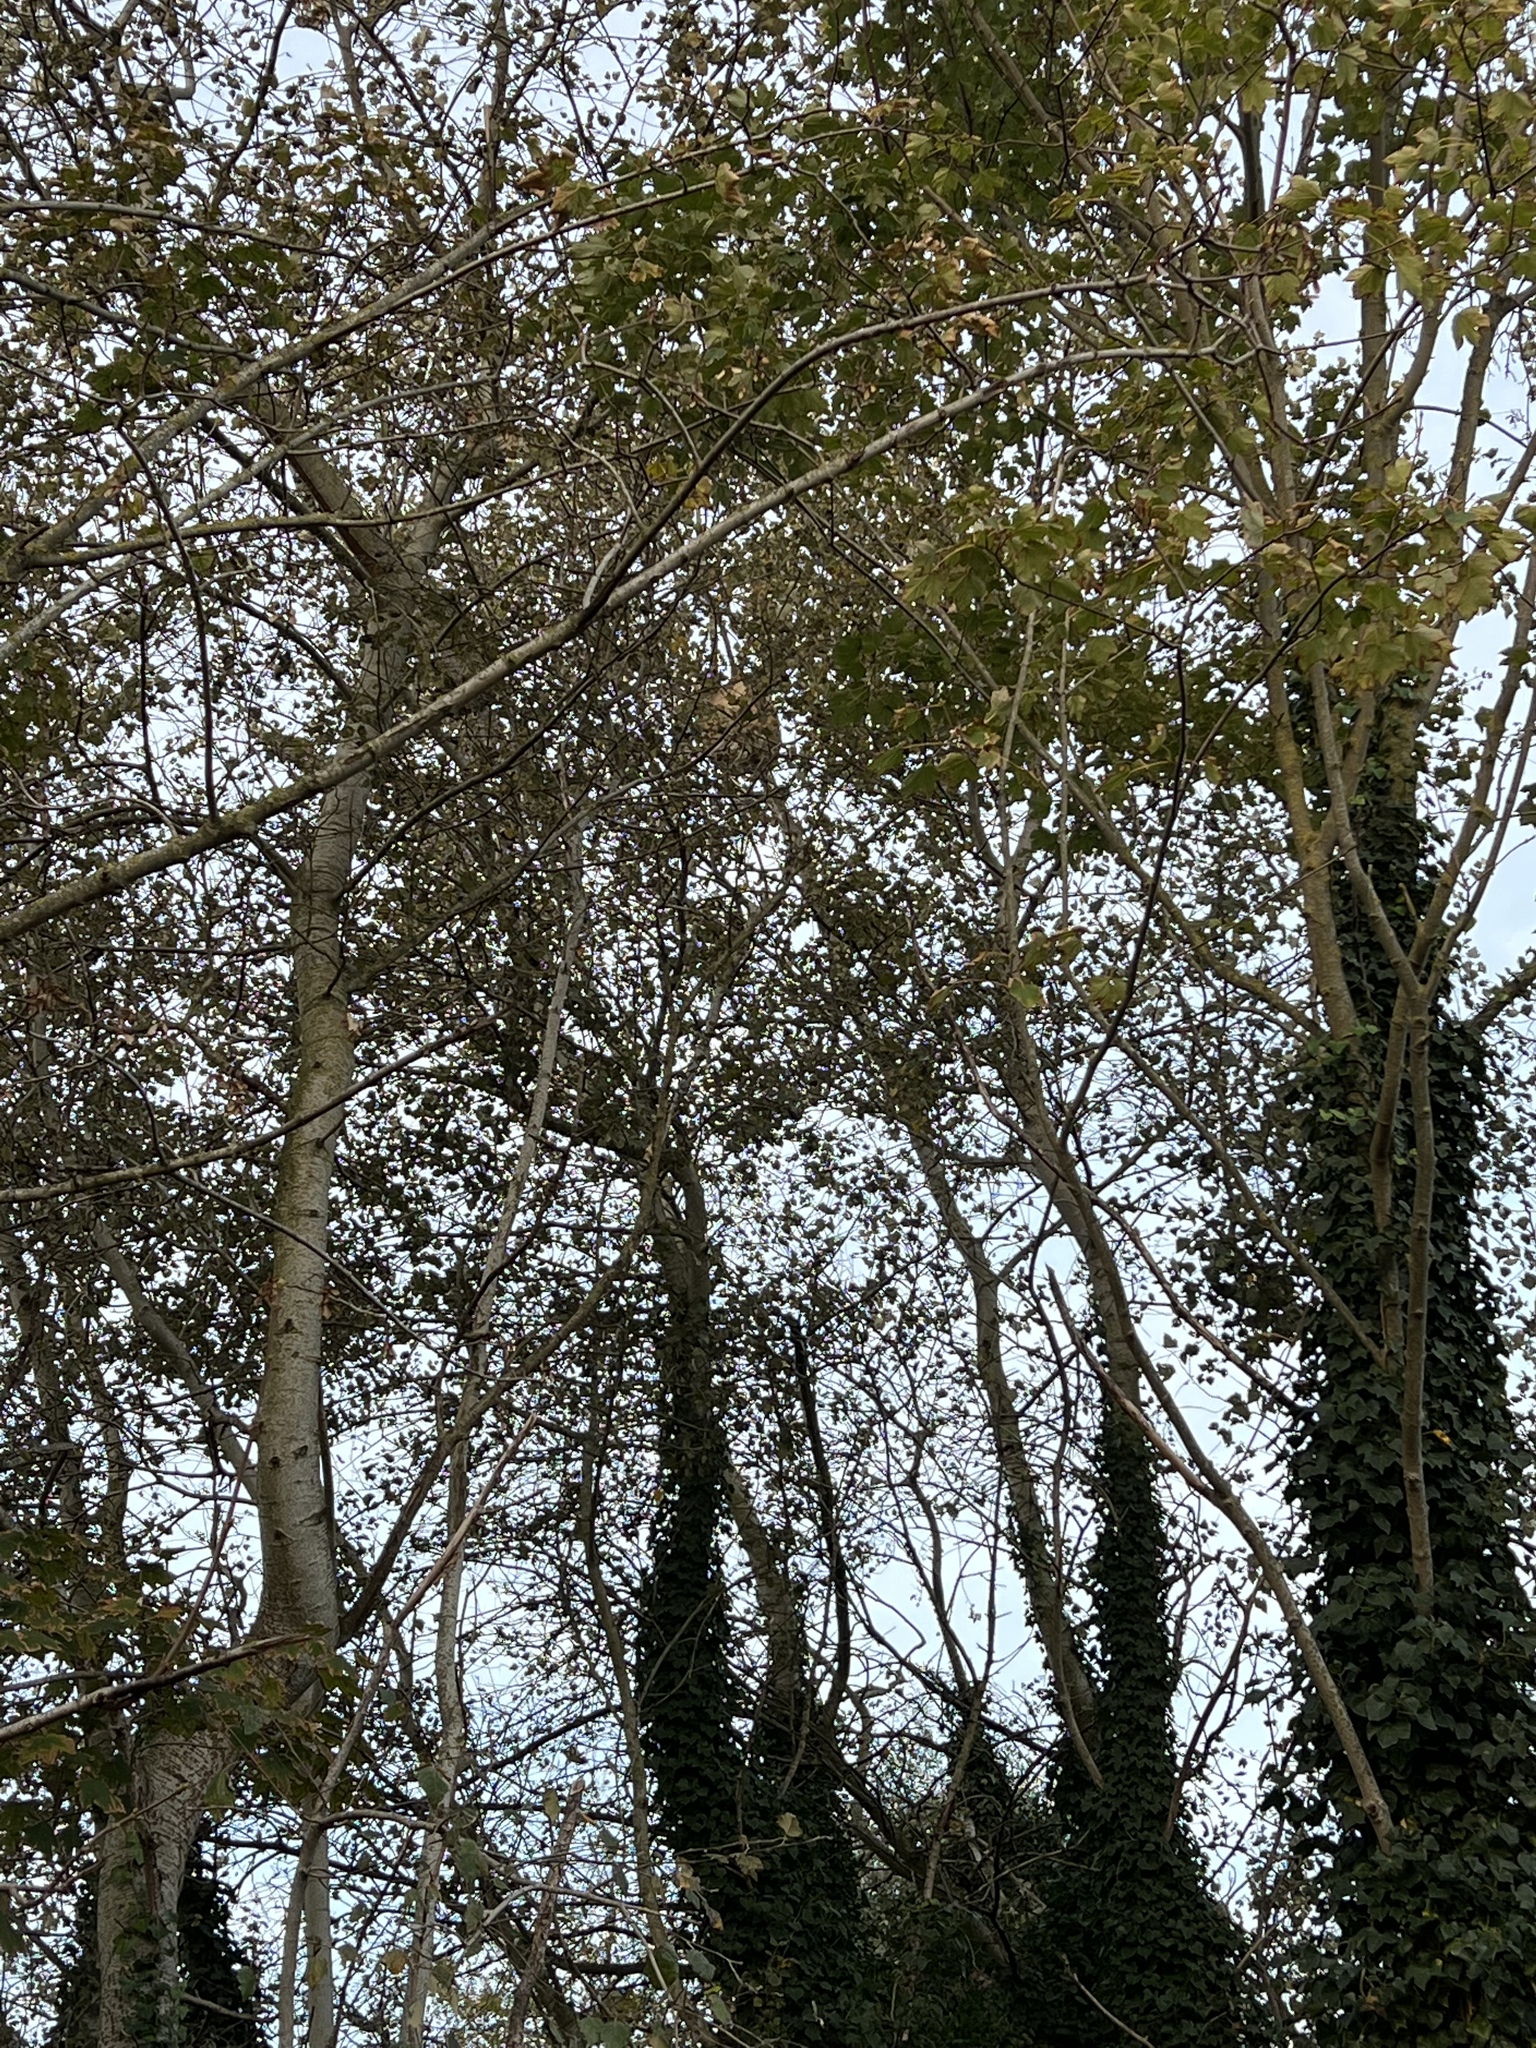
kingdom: Animalia
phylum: Arthropoda
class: Insecta
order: Hymenoptera
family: Vespidae
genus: Vespa
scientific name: Vespa velutina
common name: Asian hornet
